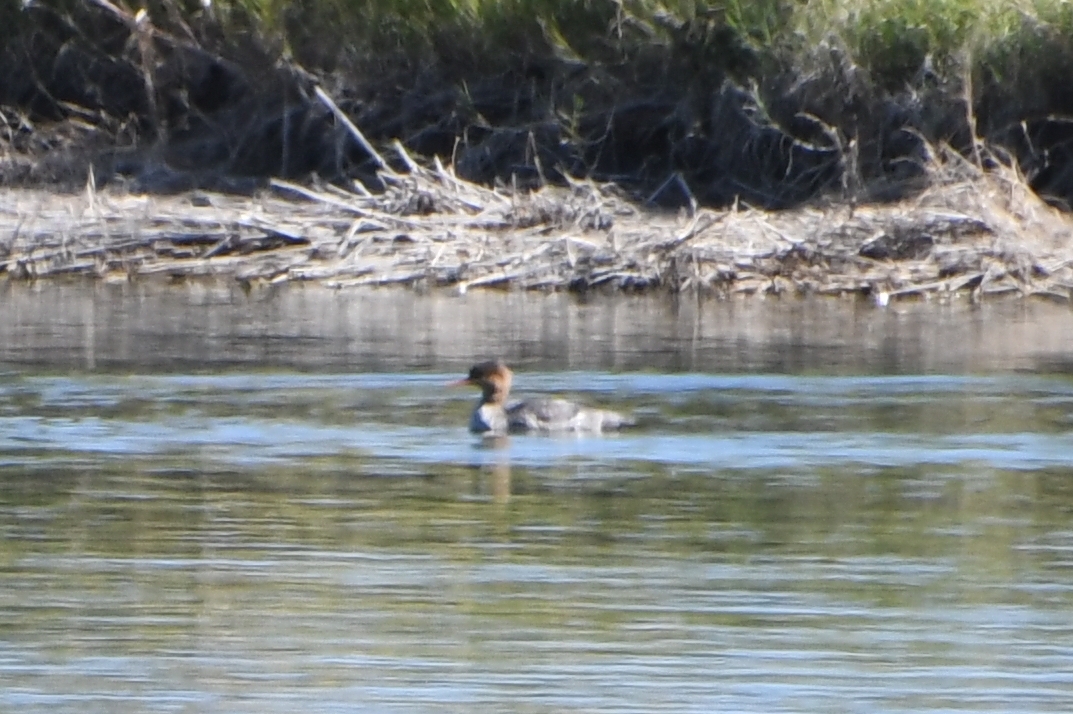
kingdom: Animalia
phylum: Chordata
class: Aves
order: Anseriformes
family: Anatidae
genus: Mergus
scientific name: Mergus serrator
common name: Red-breasted merganser
